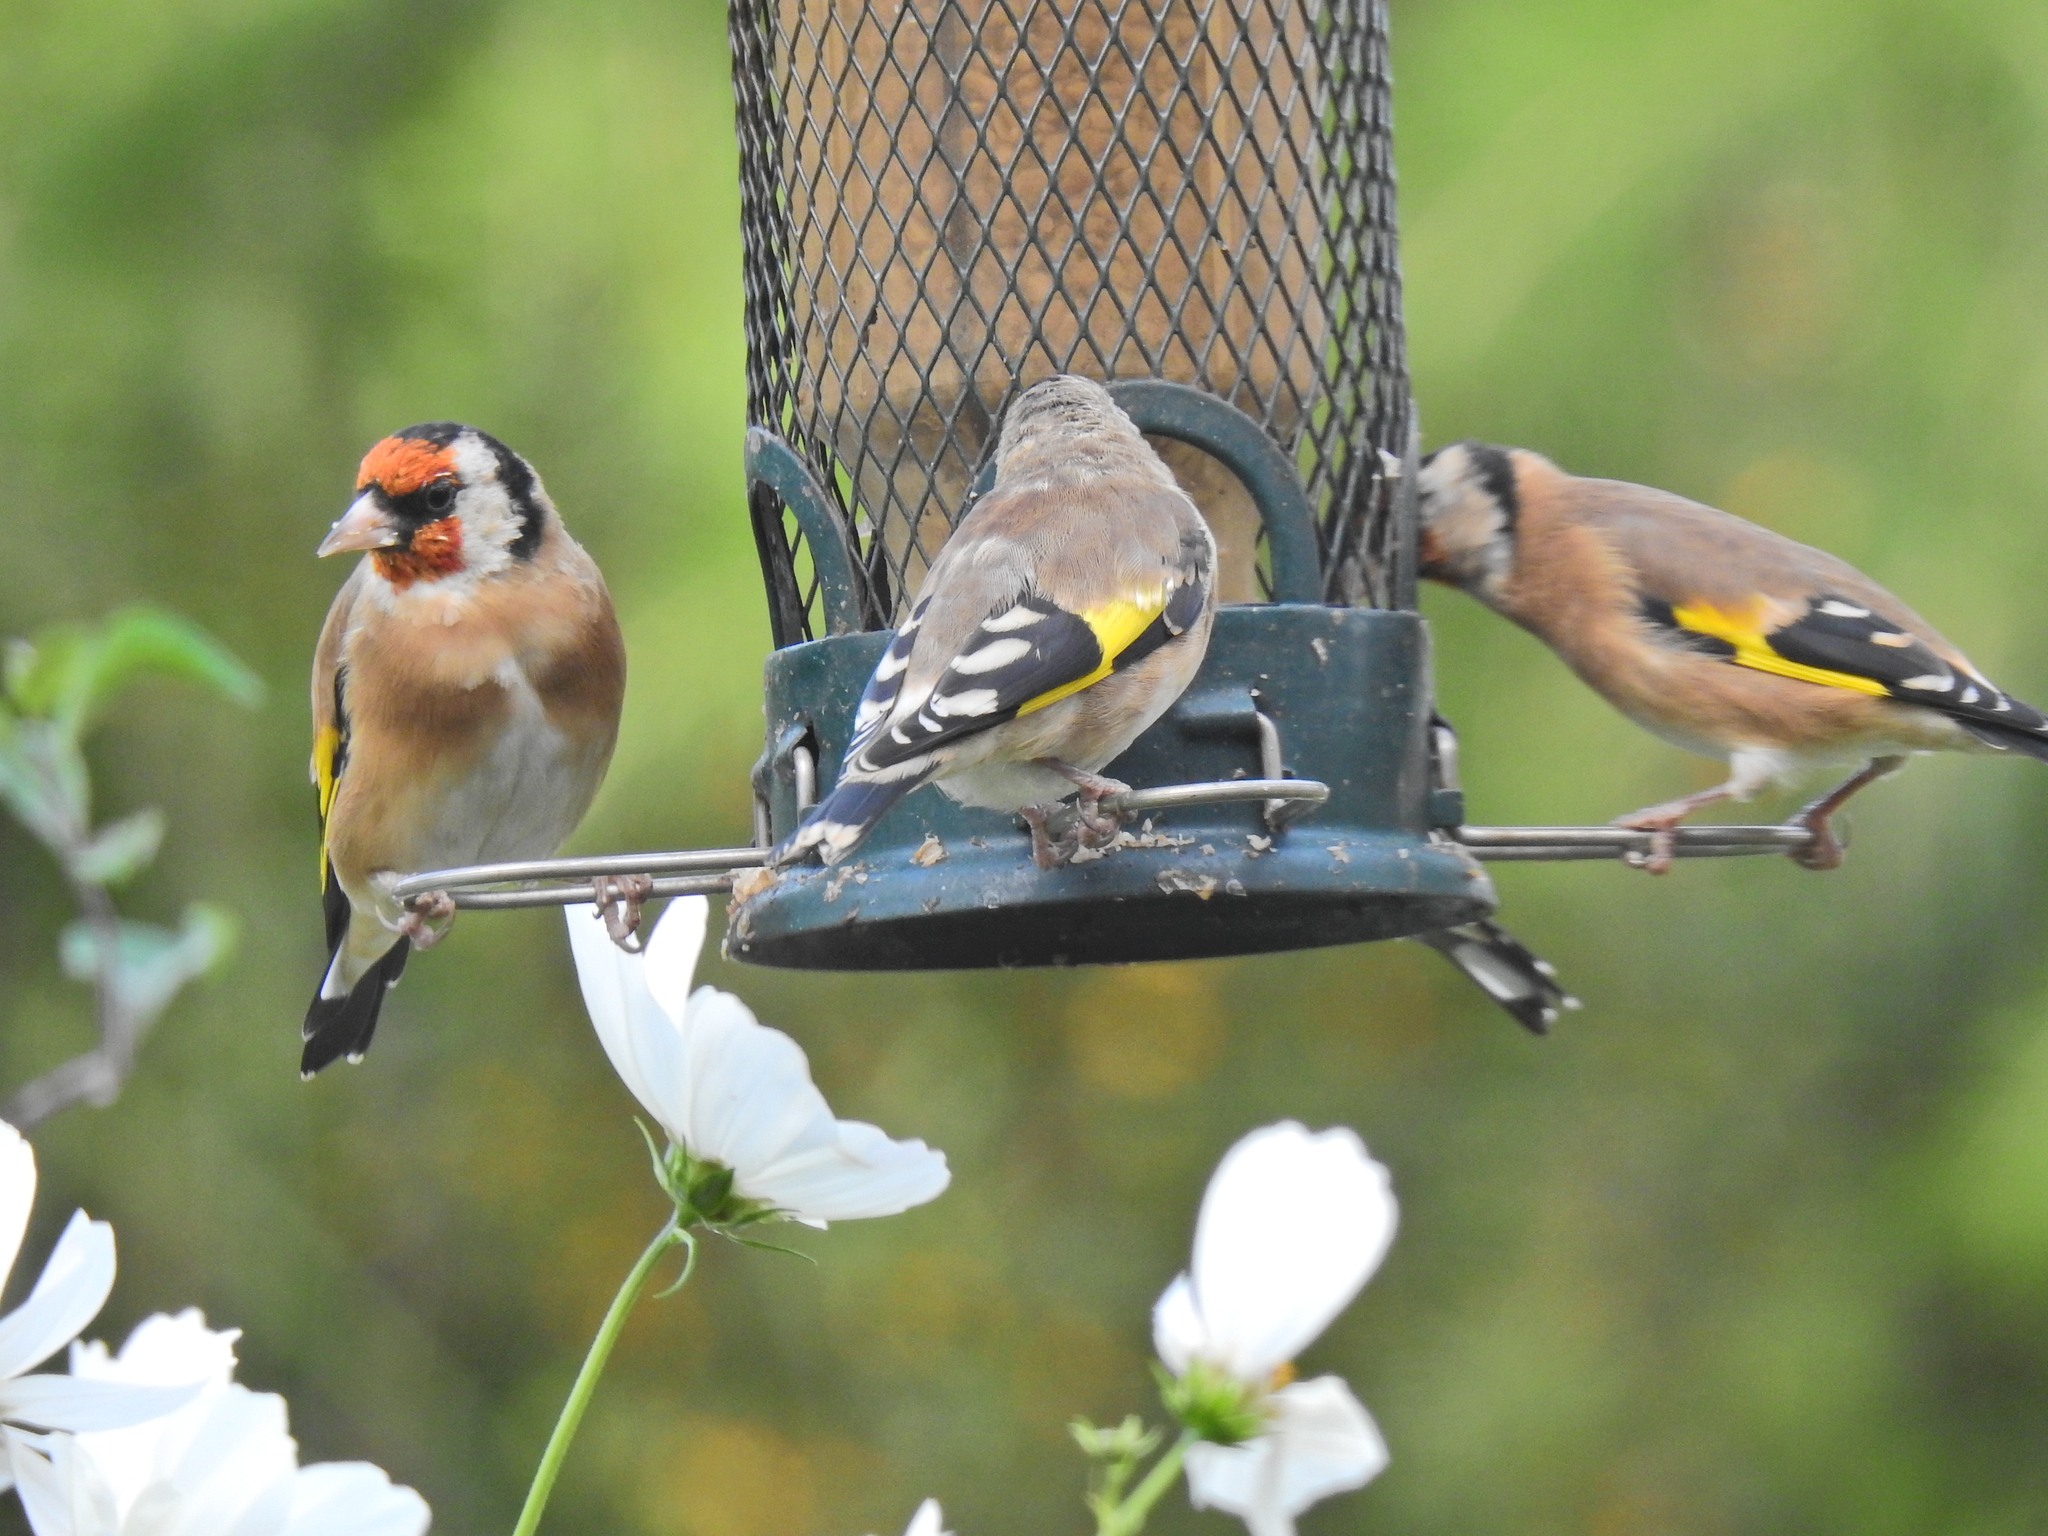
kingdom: Animalia
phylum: Chordata
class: Aves
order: Passeriformes
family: Fringillidae
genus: Carduelis
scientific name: Carduelis carduelis
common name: European goldfinch
